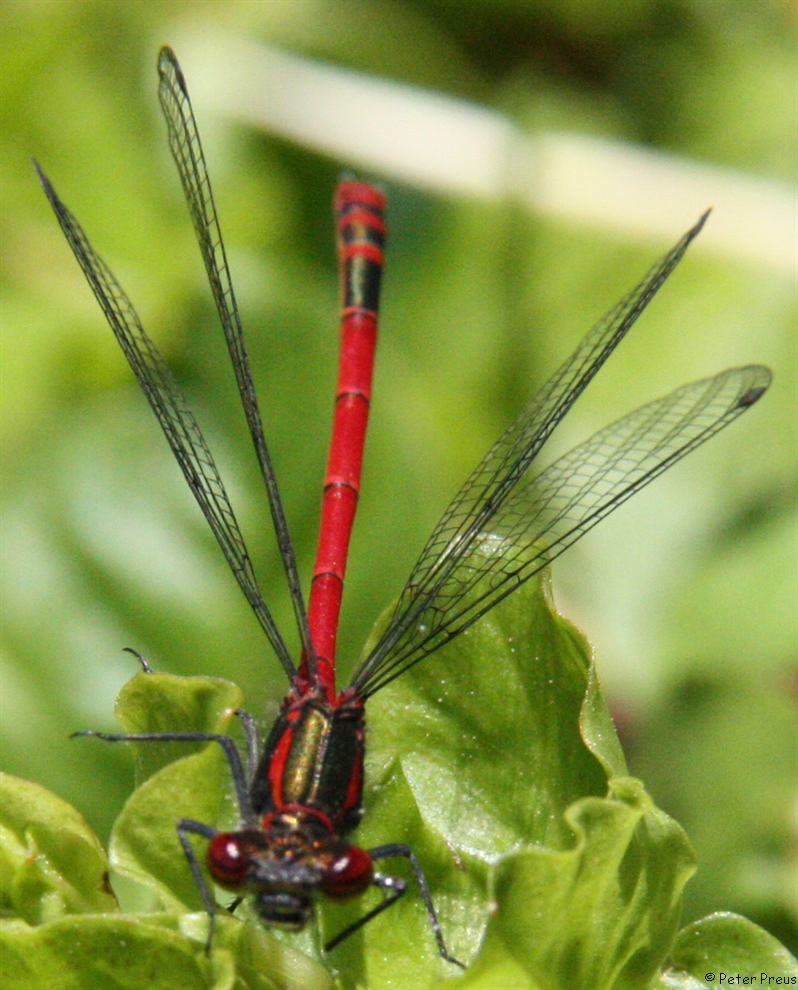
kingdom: Animalia
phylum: Arthropoda
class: Insecta
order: Odonata
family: Coenagrionidae
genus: Pyrrhosoma
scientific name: Pyrrhosoma nymphula
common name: Large red damsel
